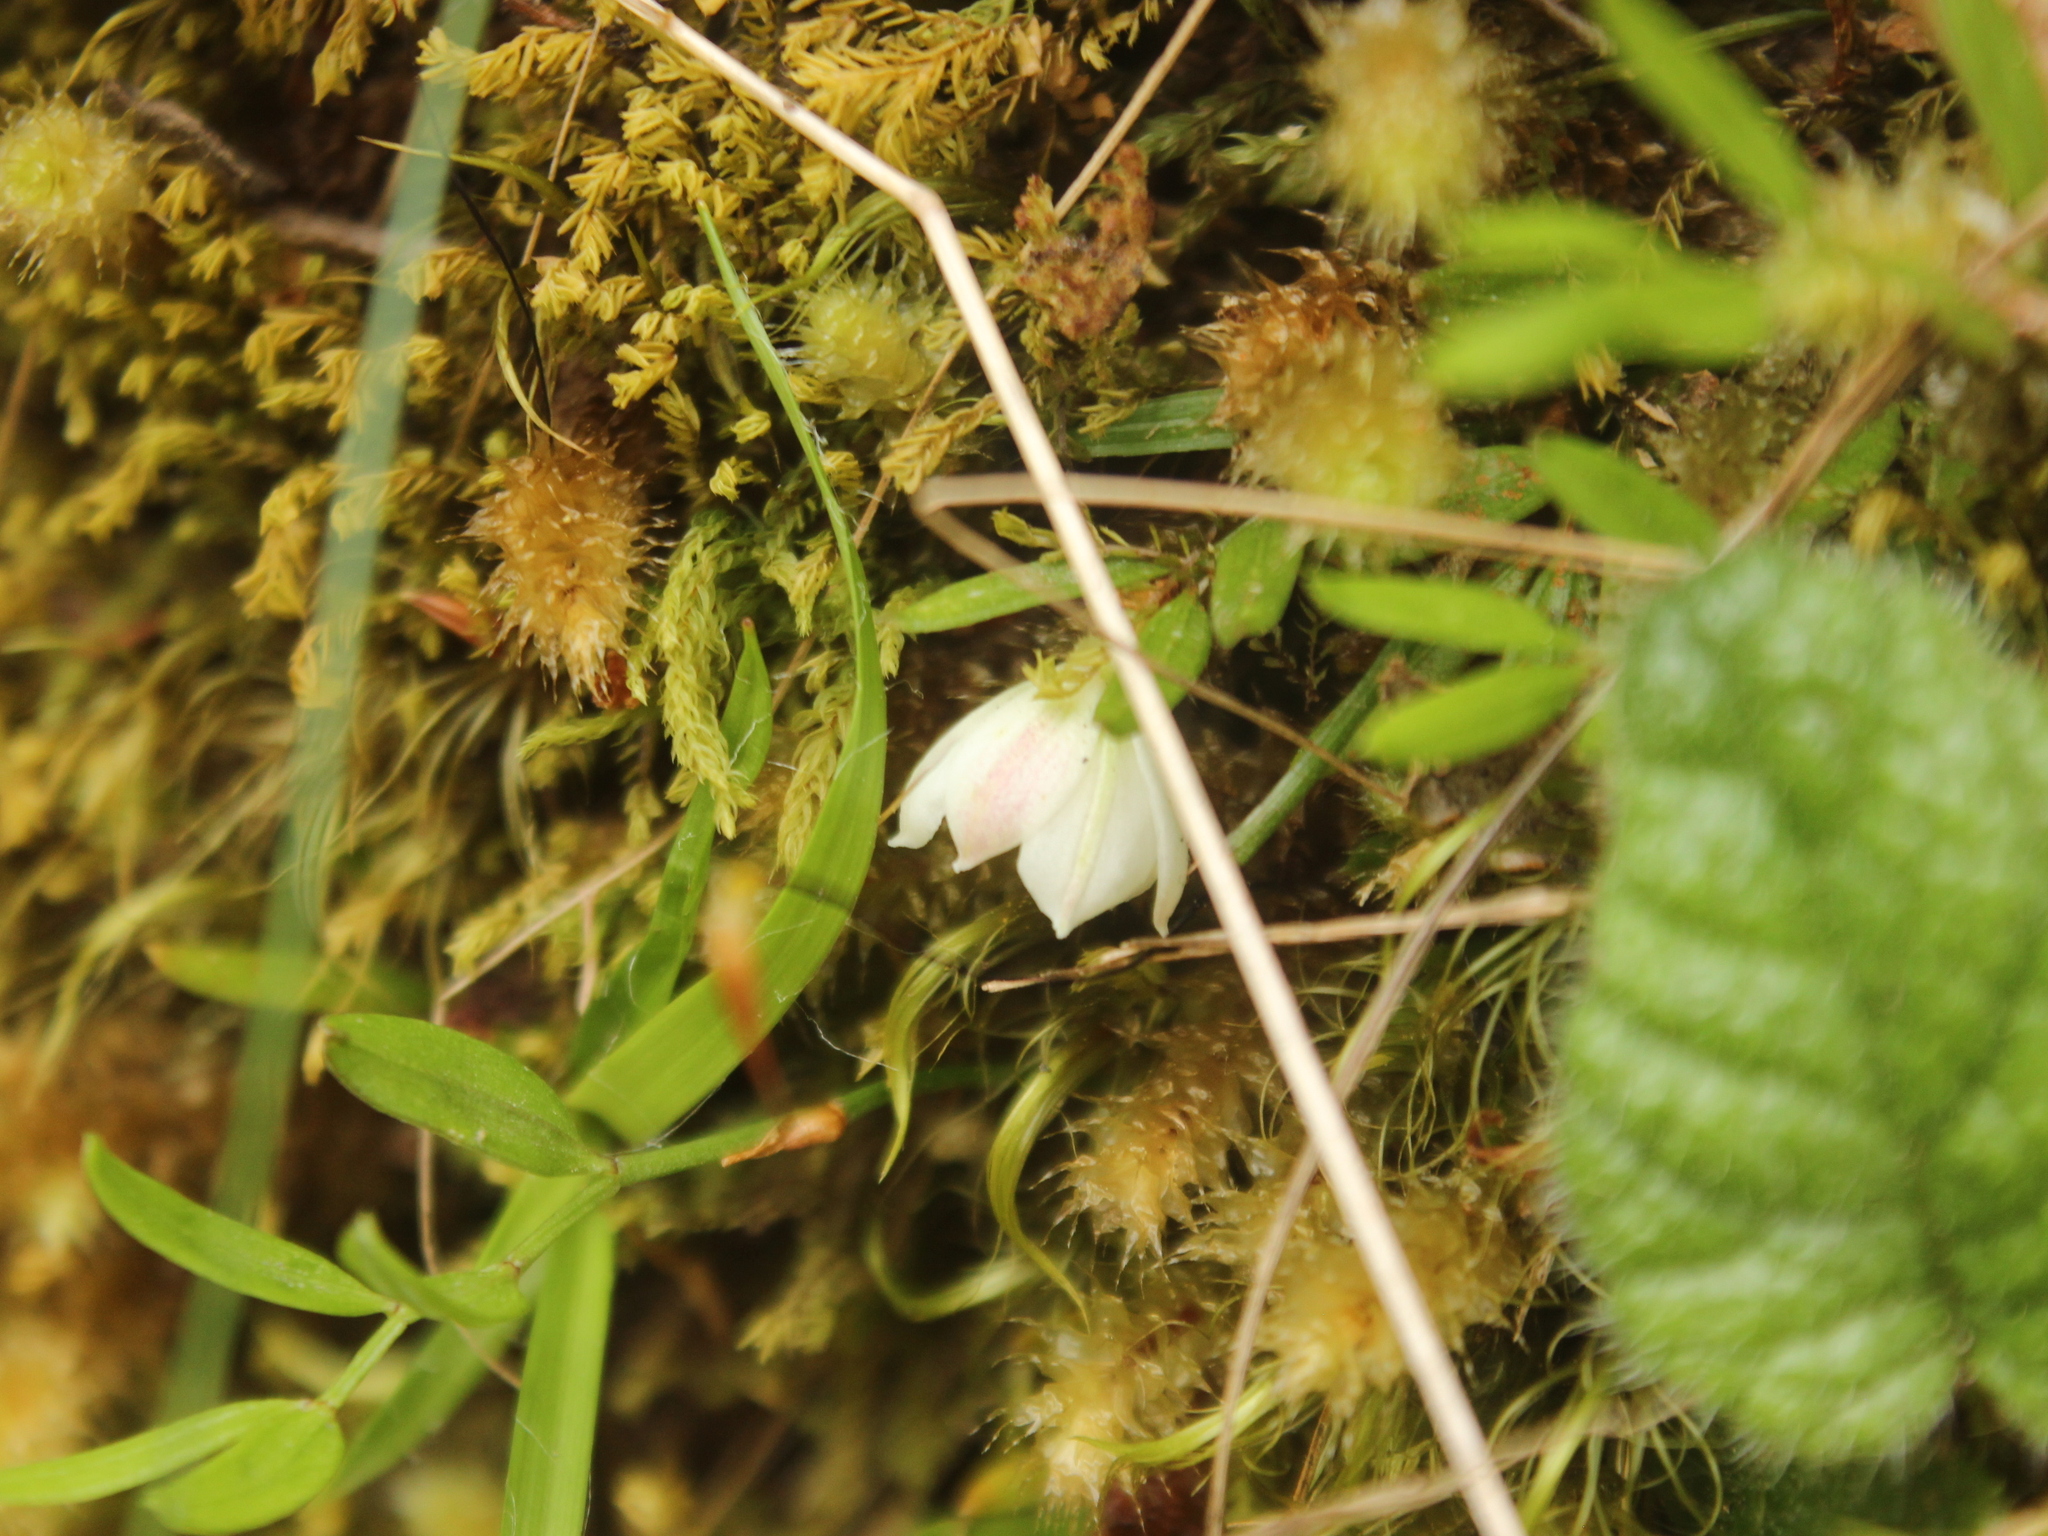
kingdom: Plantae
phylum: Tracheophyta
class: Liliopsida
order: Liliales
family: Alstroemeriaceae
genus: Luzuriaga
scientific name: Luzuriaga parviflora
